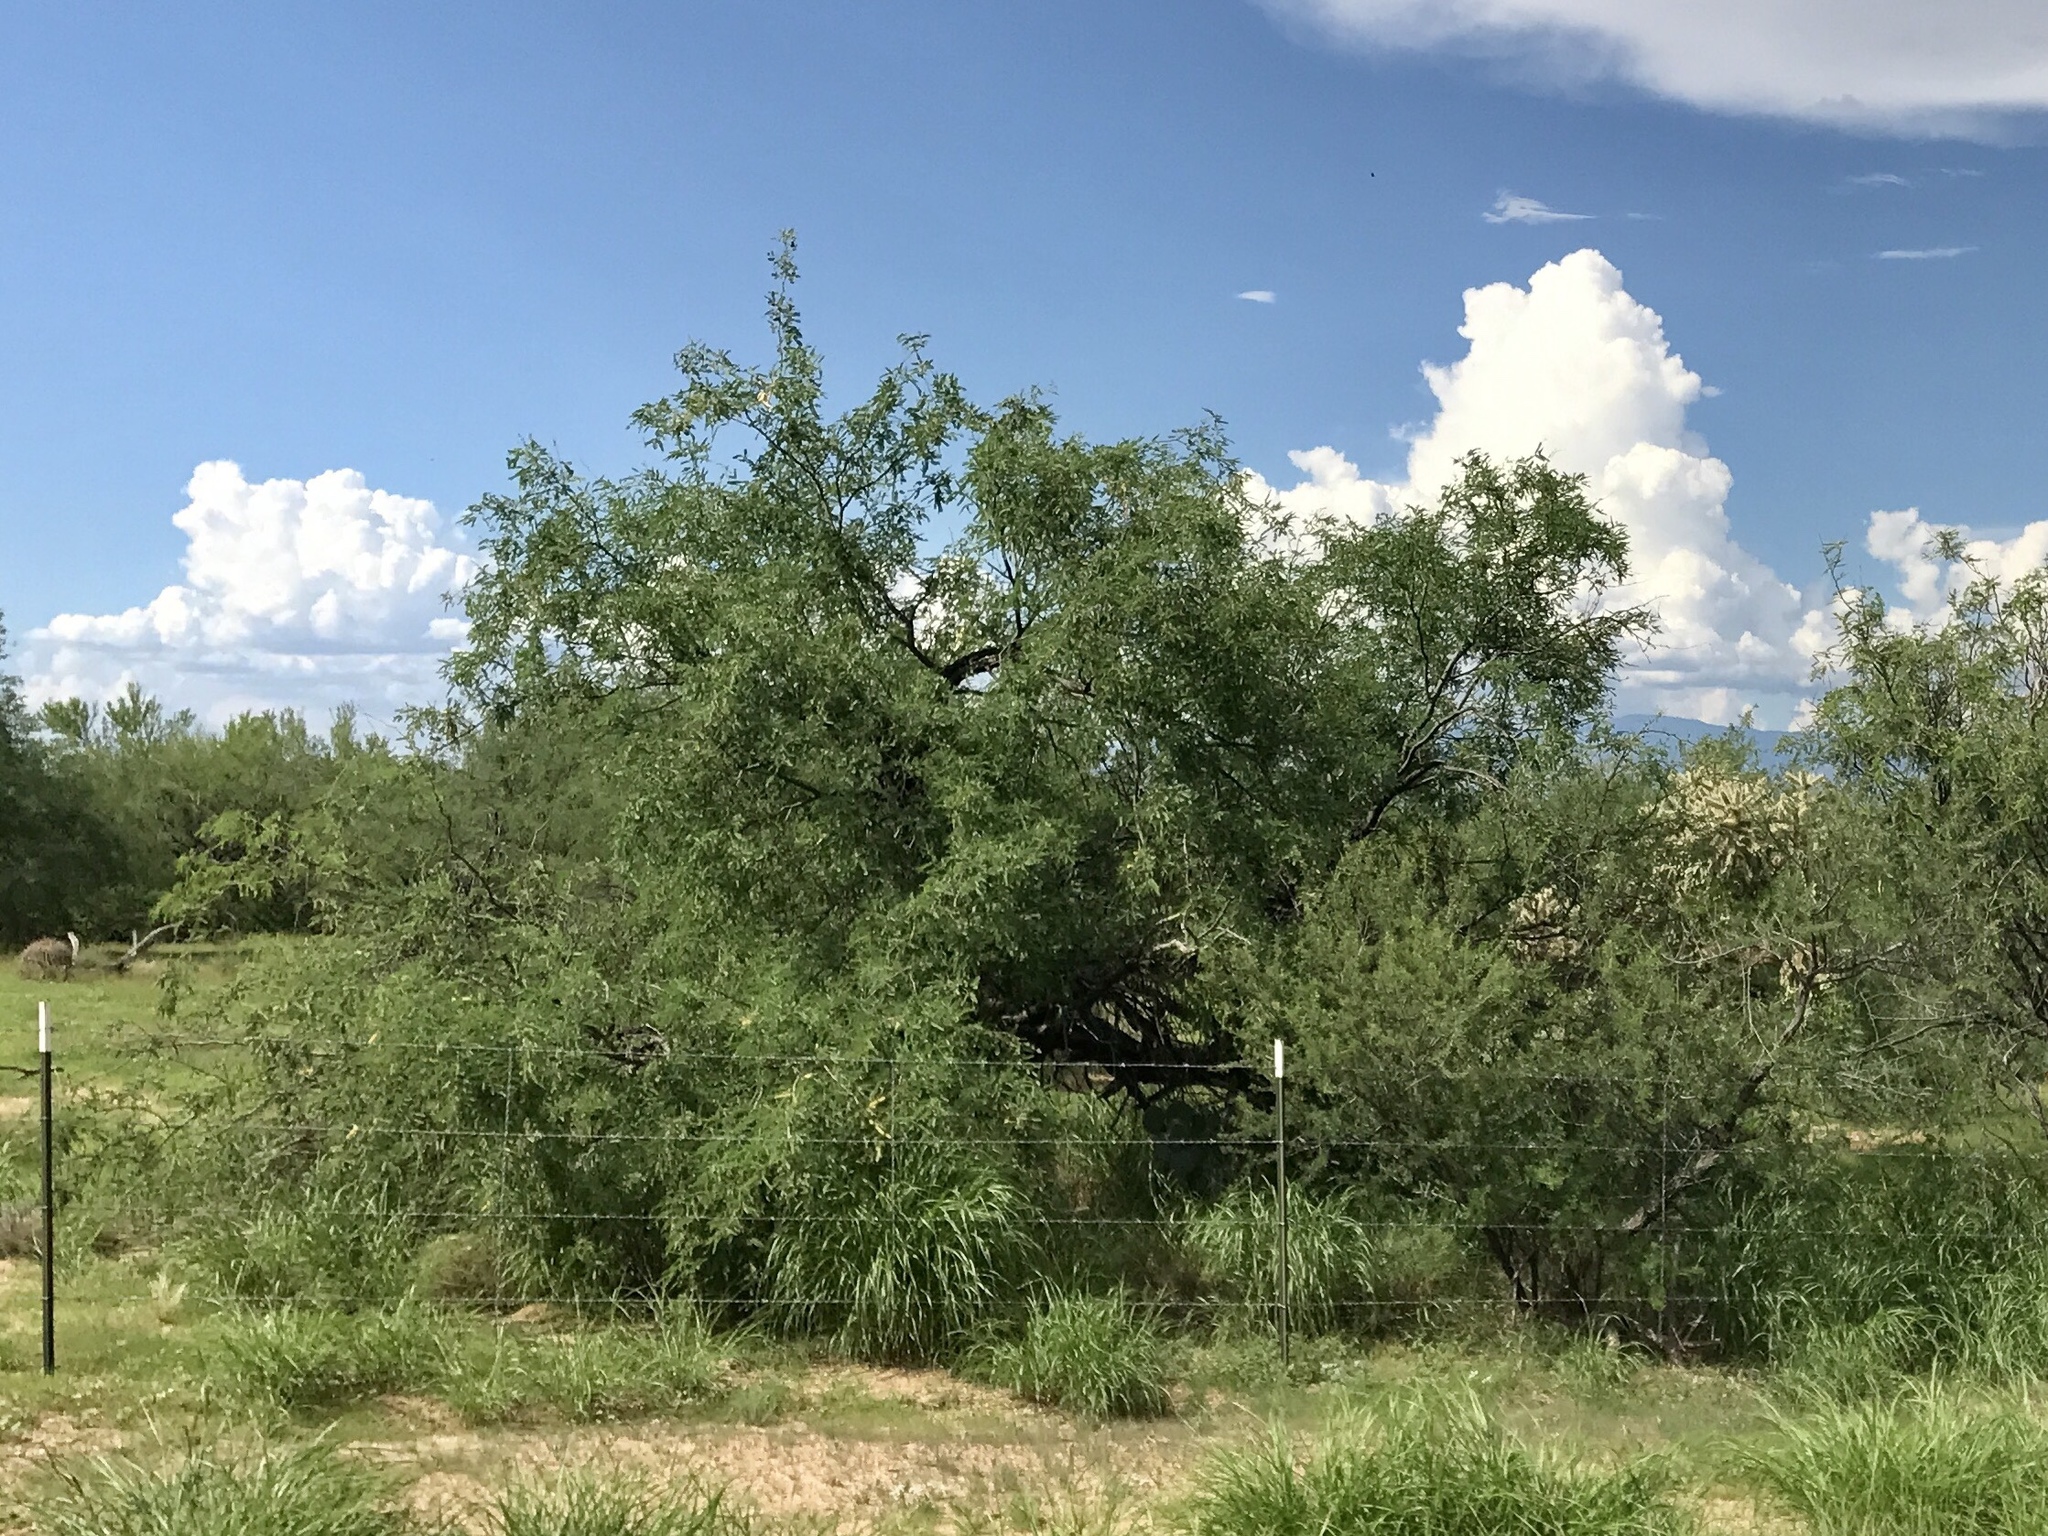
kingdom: Plantae
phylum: Tracheophyta
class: Magnoliopsida
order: Fabales
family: Fabaceae
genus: Prosopis
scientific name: Prosopis velutina
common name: Velvet mesquite
